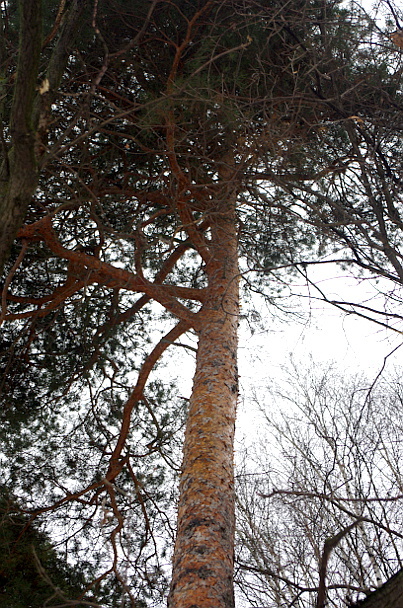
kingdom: Plantae
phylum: Tracheophyta
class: Pinopsida
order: Pinales
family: Pinaceae
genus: Pinus
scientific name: Pinus sylvestris
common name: Scots pine
